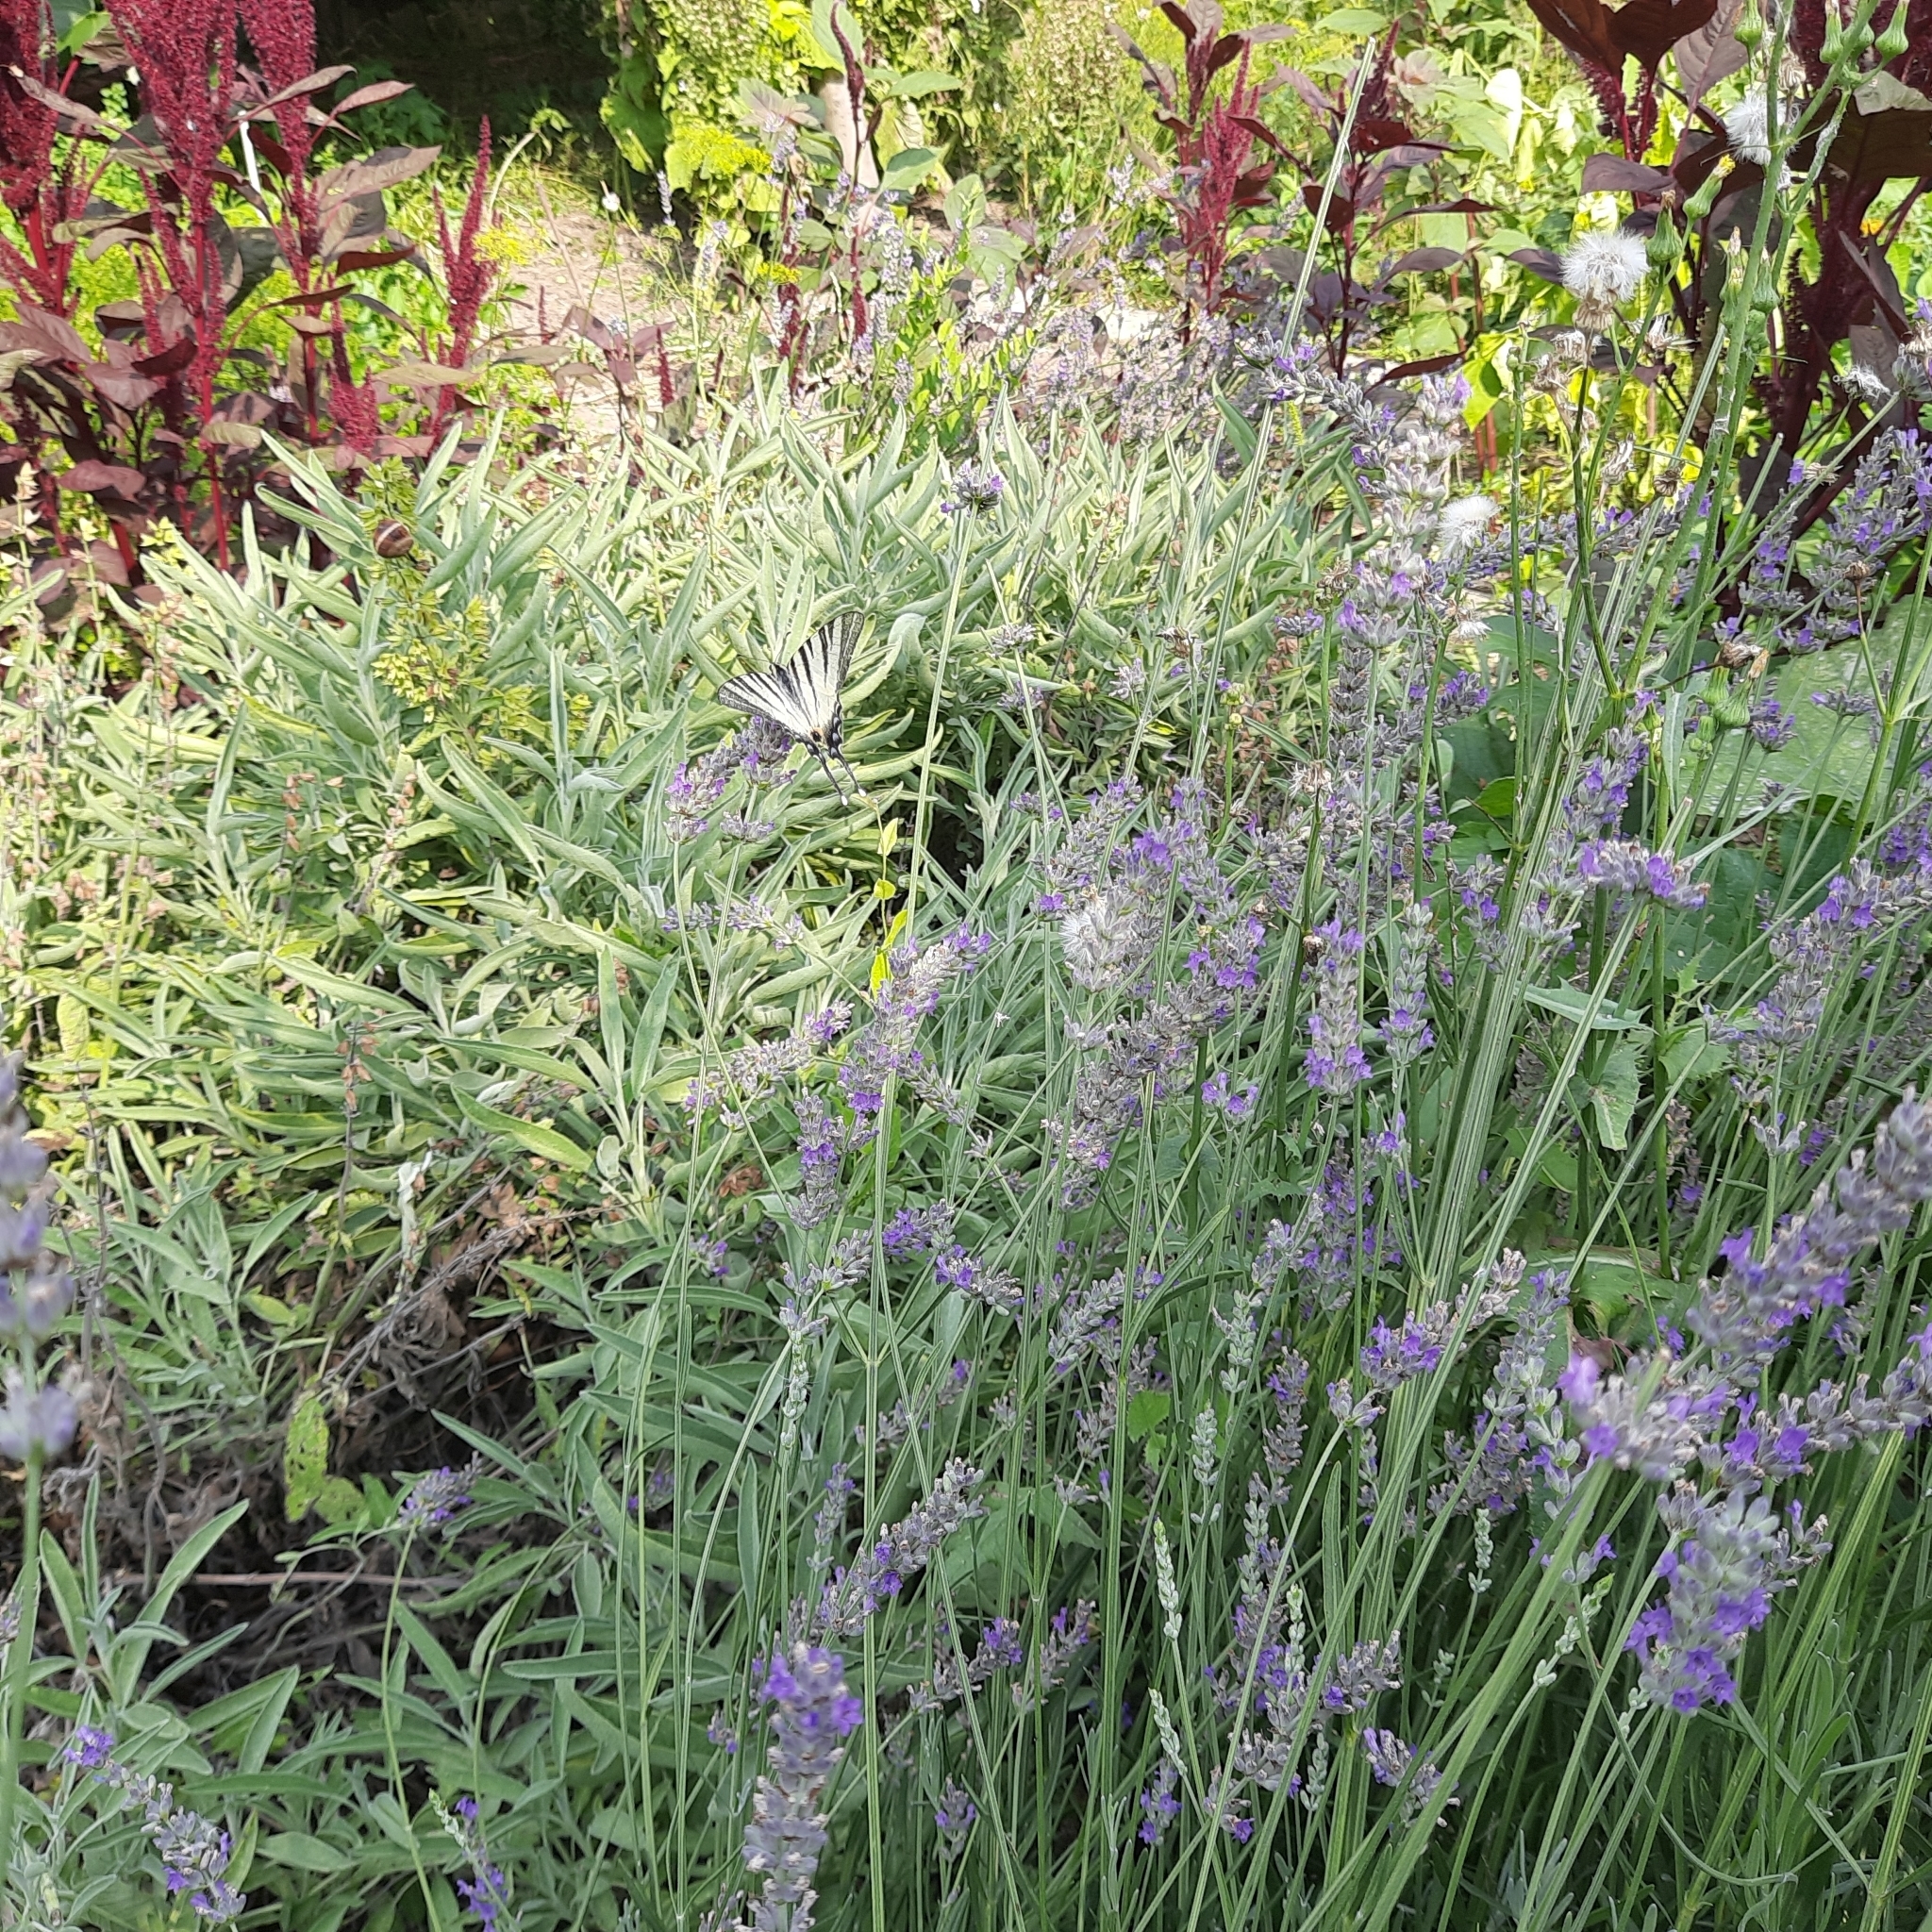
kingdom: Animalia
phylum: Arthropoda
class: Insecta
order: Lepidoptera
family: Papilionidae
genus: Iphiclides
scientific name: Iphiclides podalirius
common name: Scarce swallowtail
